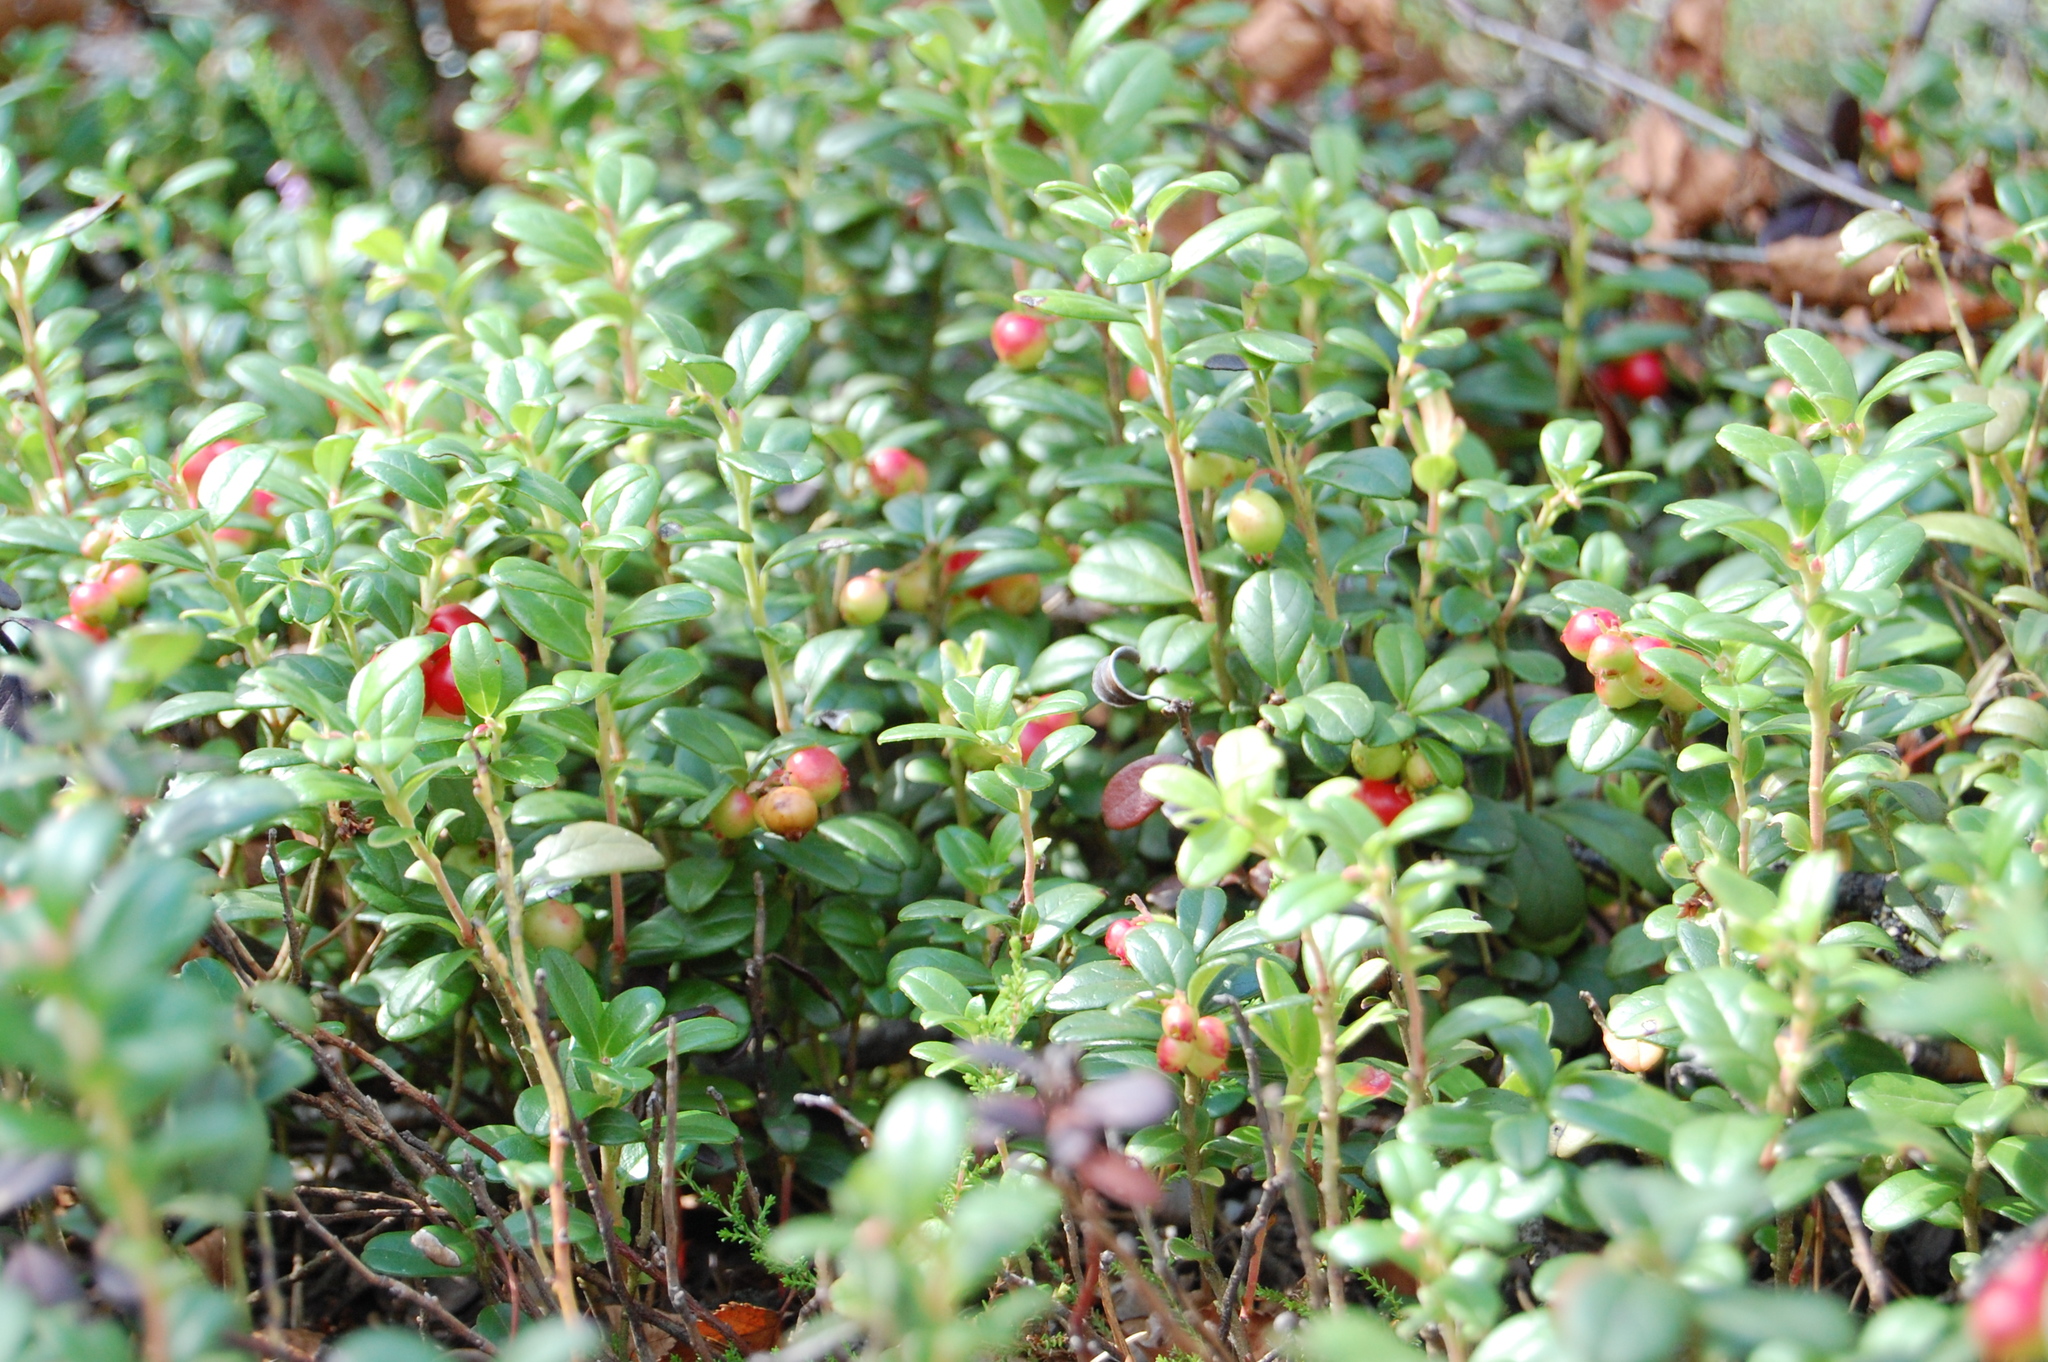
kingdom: Plantae
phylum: Tracheophyta
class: Magnoliopsida
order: Ericales
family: Ericaceae
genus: Vaccinium
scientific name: Vaccinium vitis-idaea
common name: Cowberry
